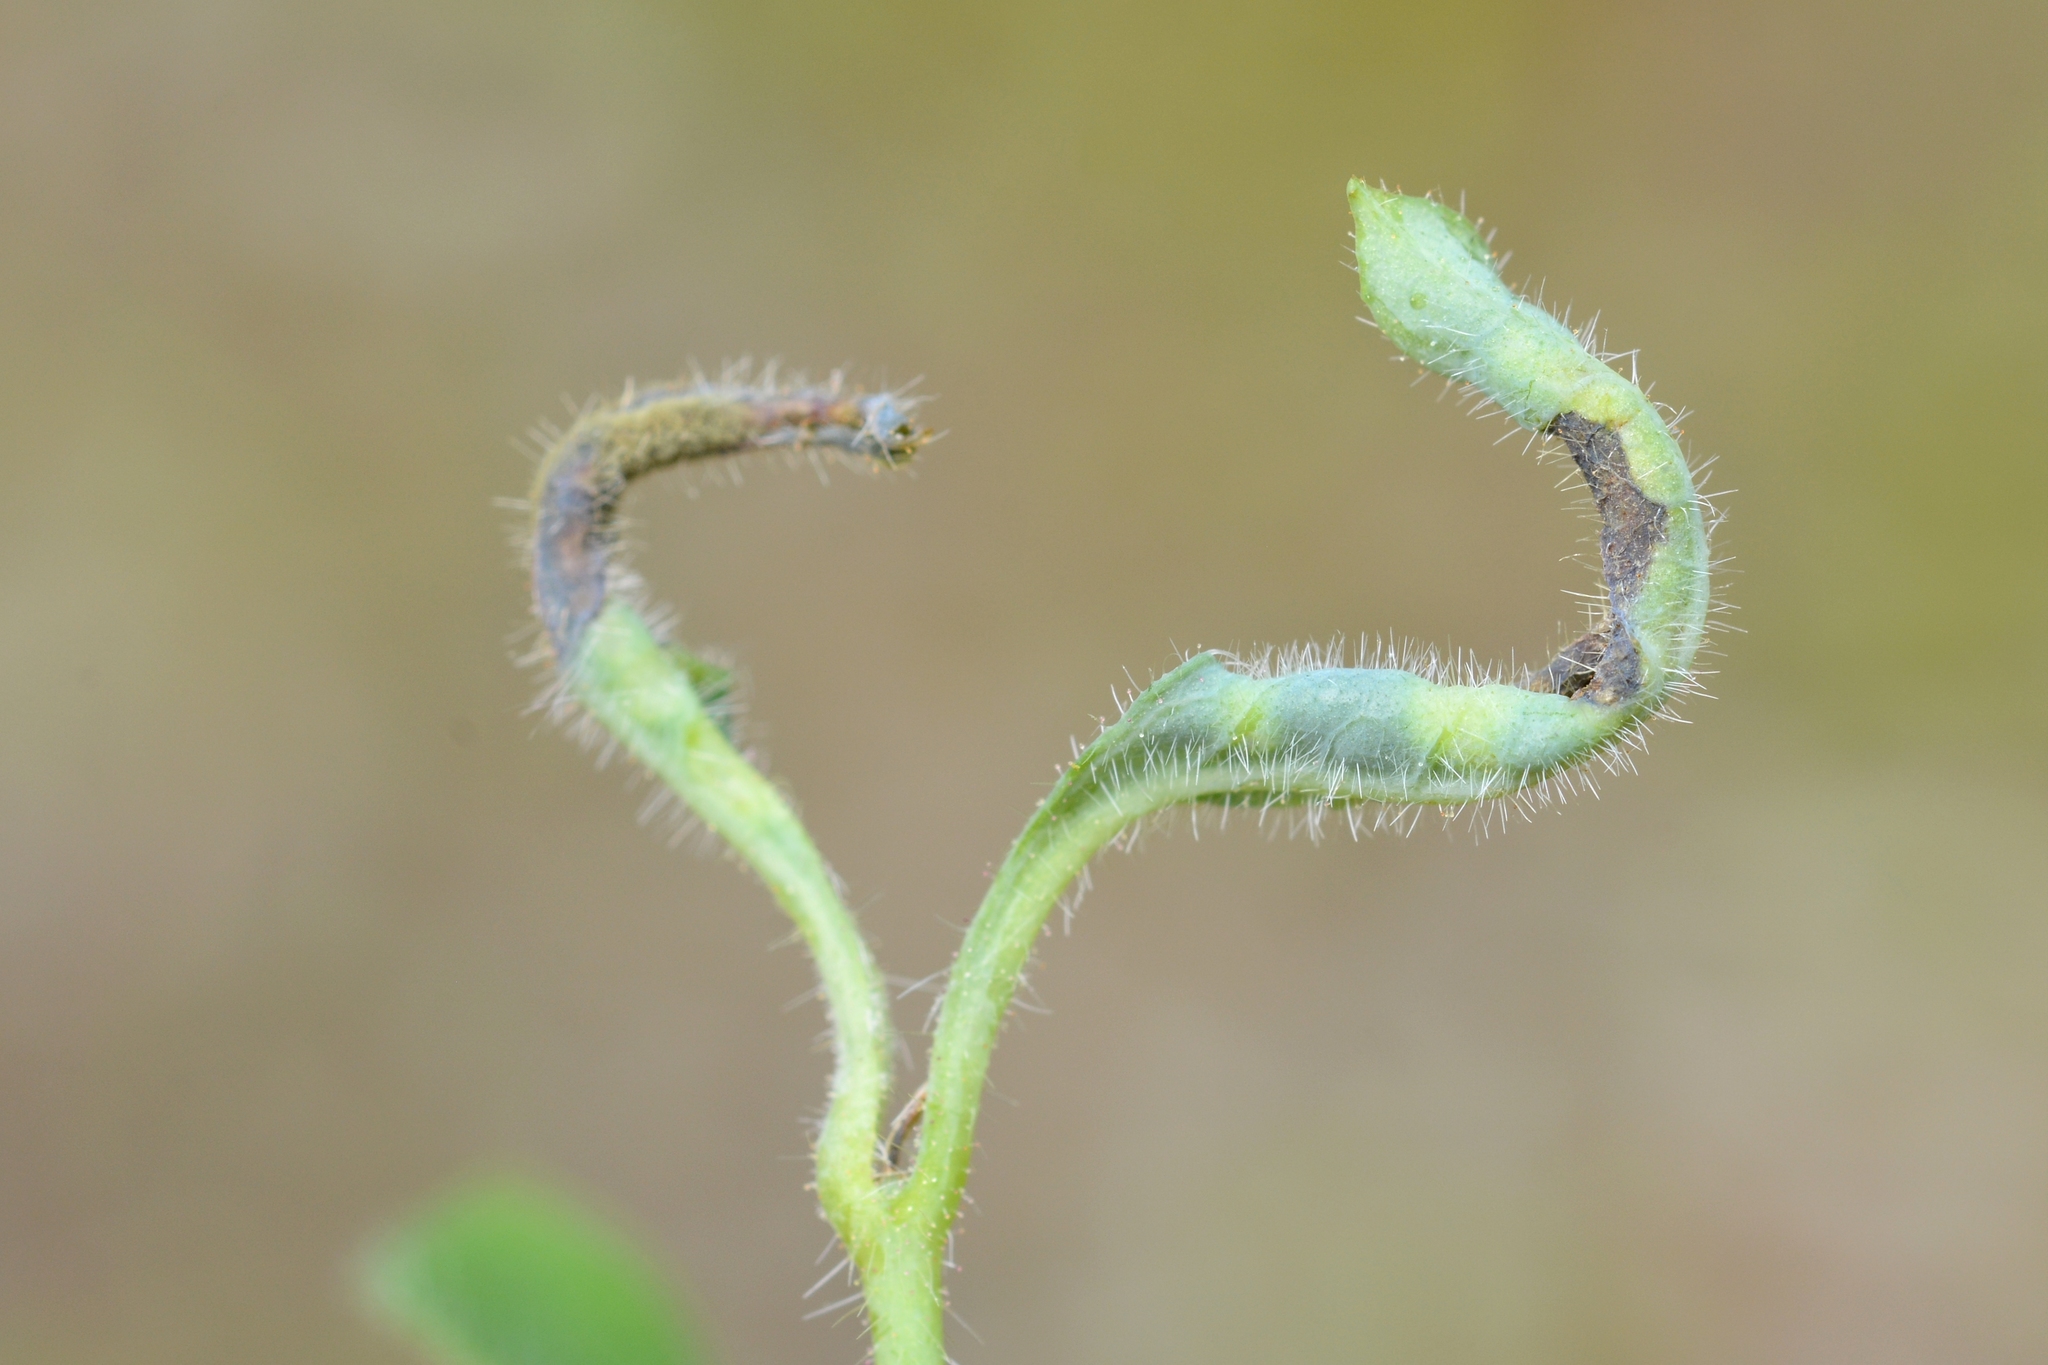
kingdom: Animalia
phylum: Arthropoda
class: Insecta
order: Diptera
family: Cecidomyiidae
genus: Macrolabis
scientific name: Macrolabis lonicerae
